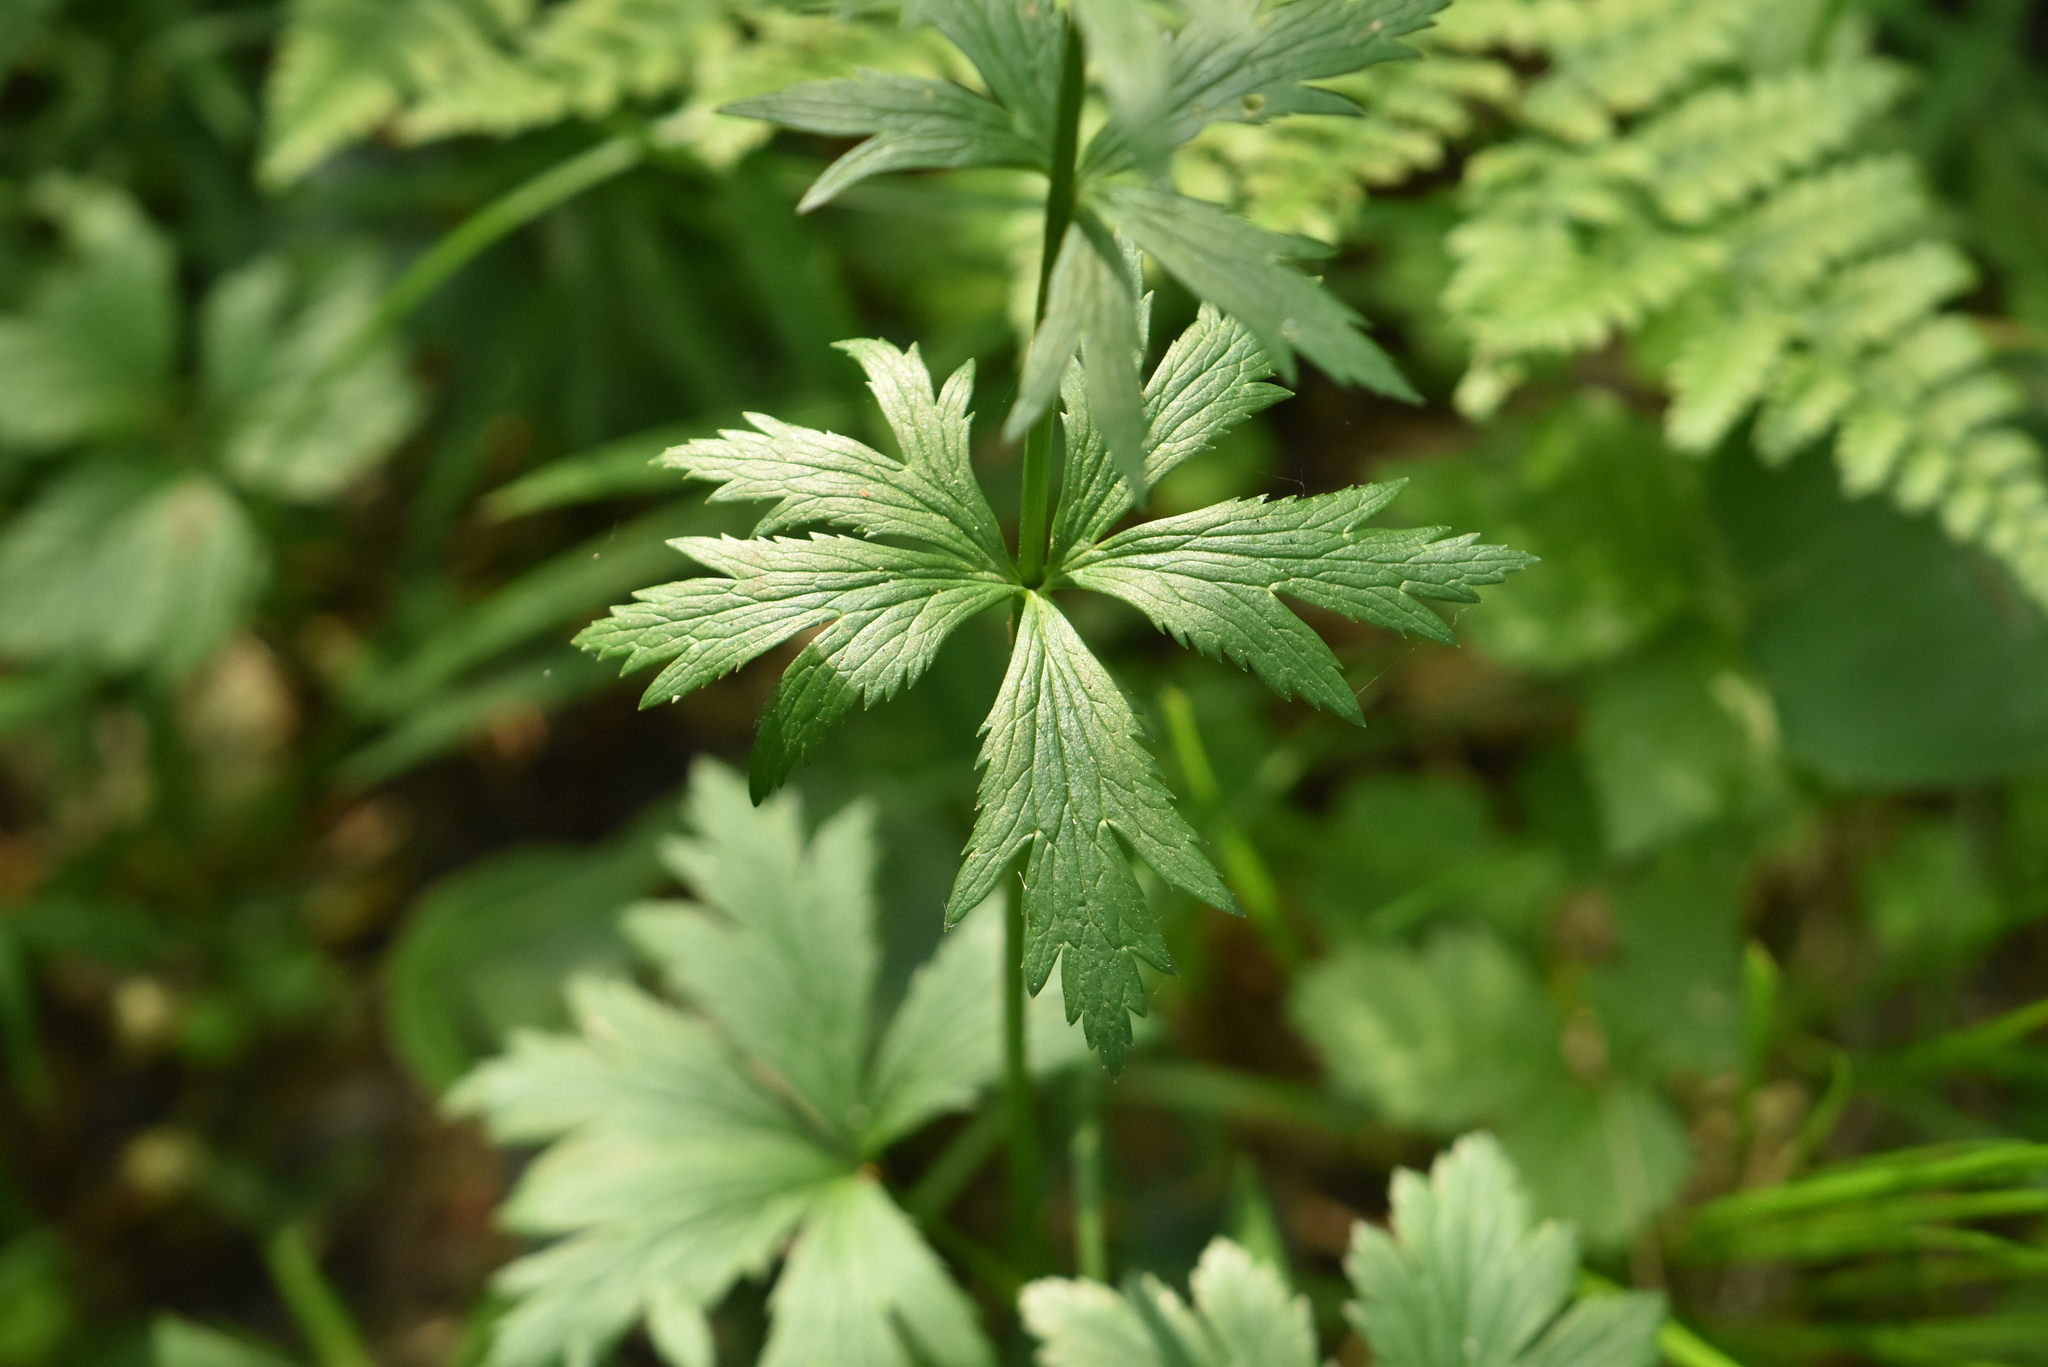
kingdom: Plantae
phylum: Tracheophyta
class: Magnoliopsida
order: Ranunculales
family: Ranunculaceae
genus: Trollius
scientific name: Trollius europaeus
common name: European globeflower
